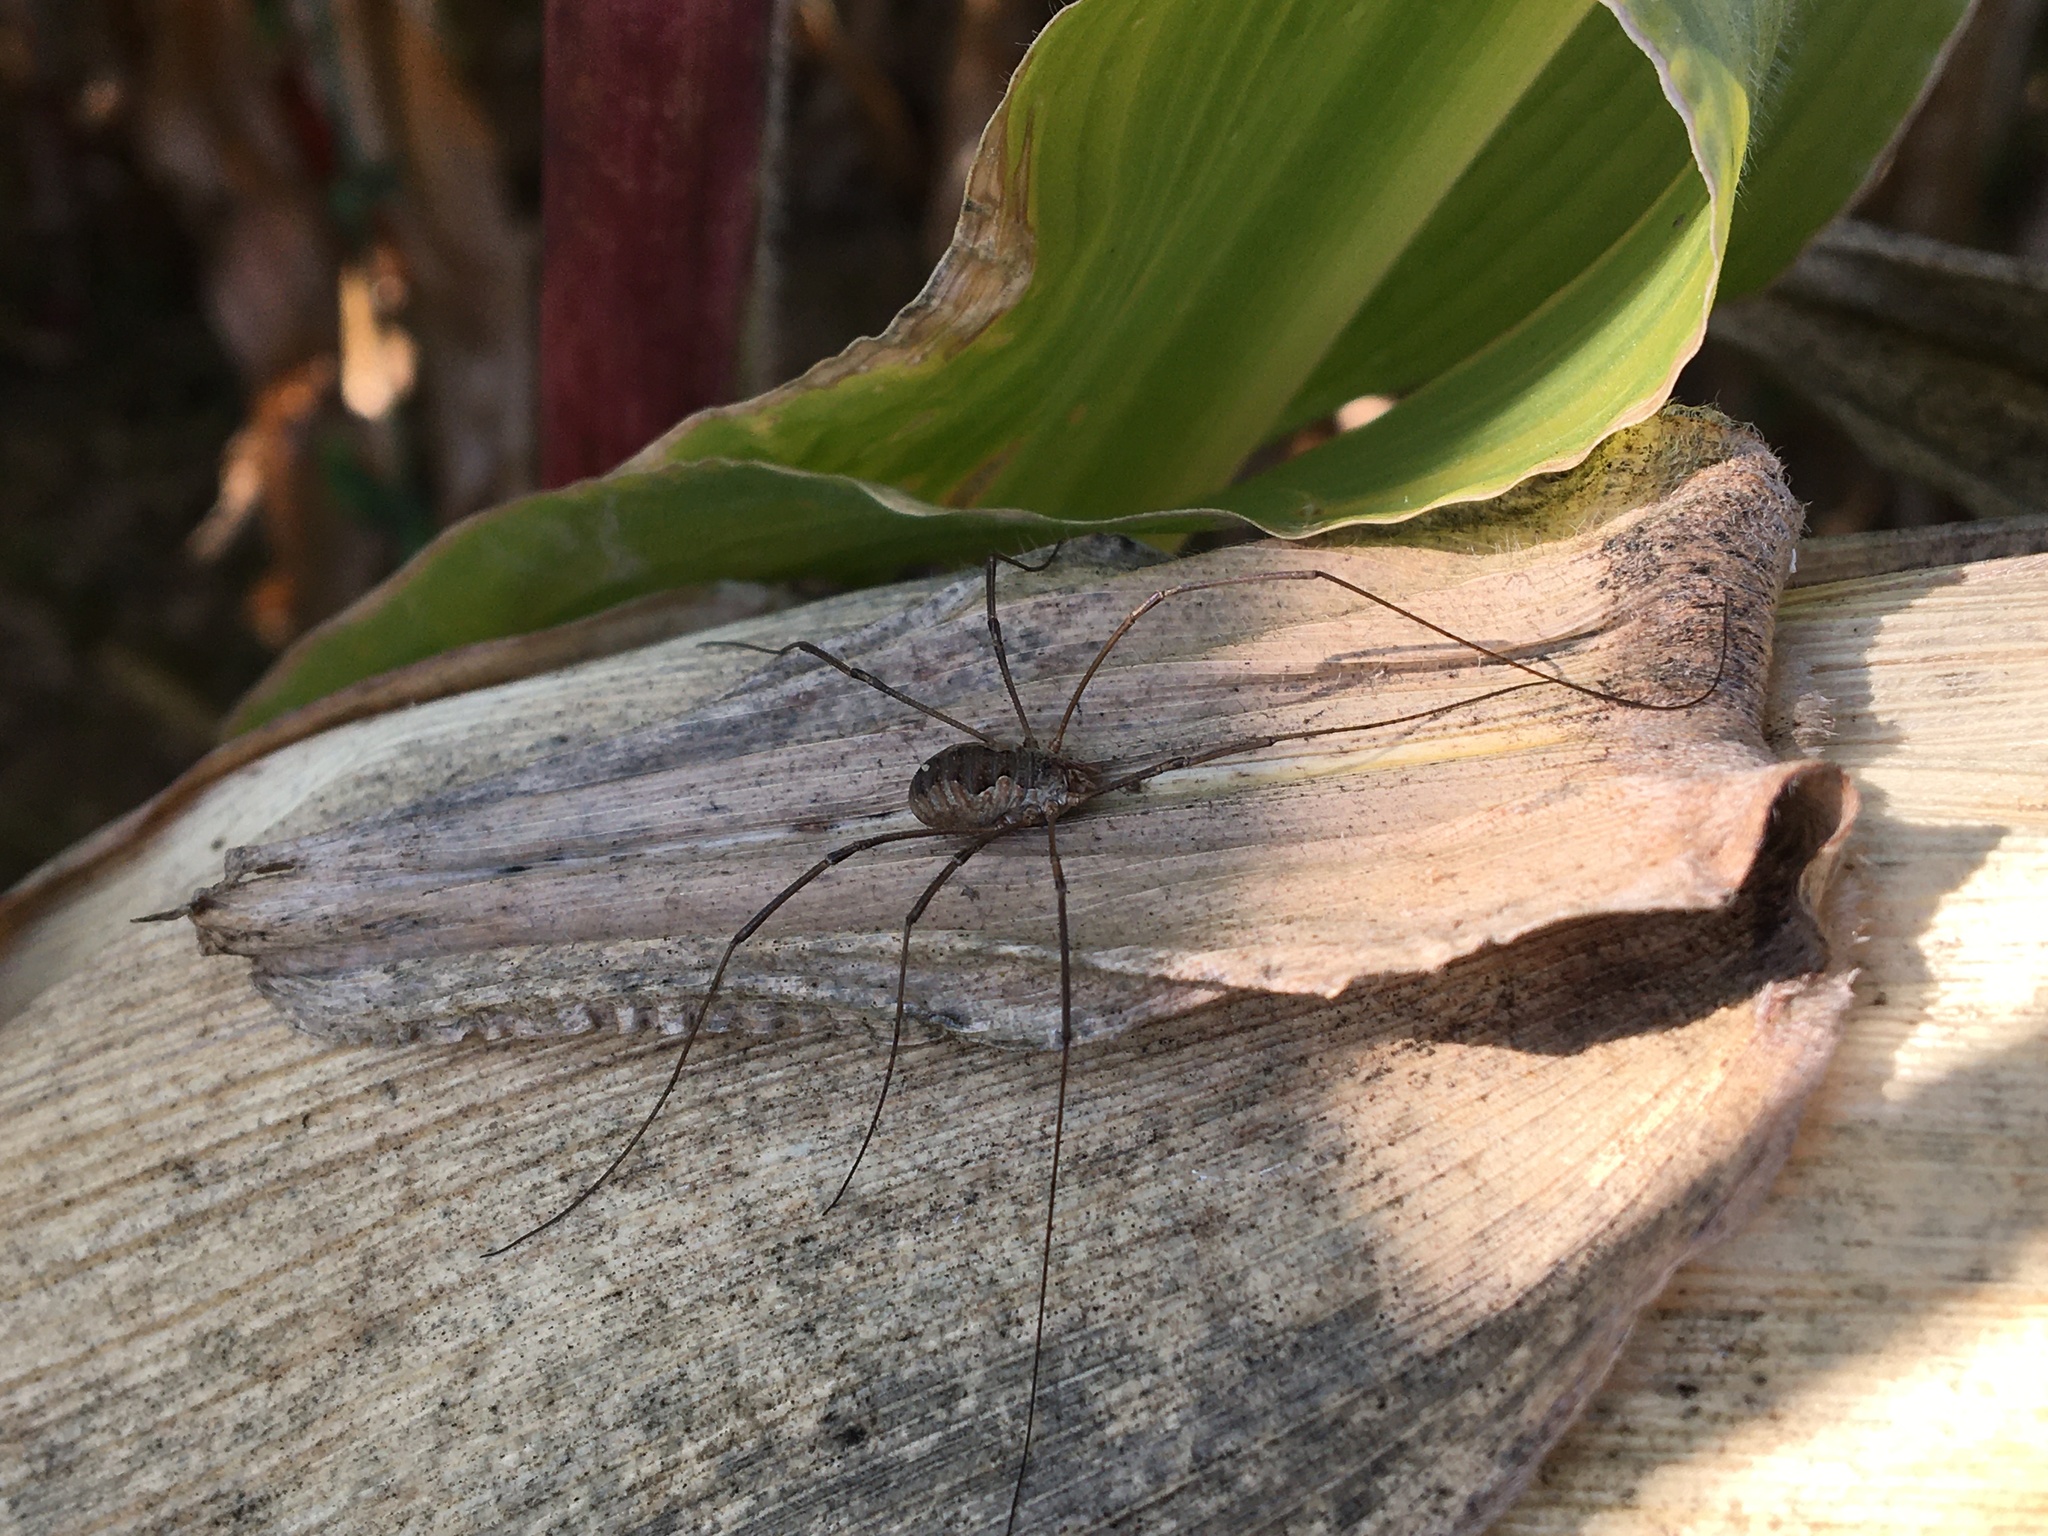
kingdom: Animalia
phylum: Arthropoda
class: Arachnida
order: Opiliones
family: Phalangiidae
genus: Phalangium
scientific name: Phalangium opilio
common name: Daddy longleg
